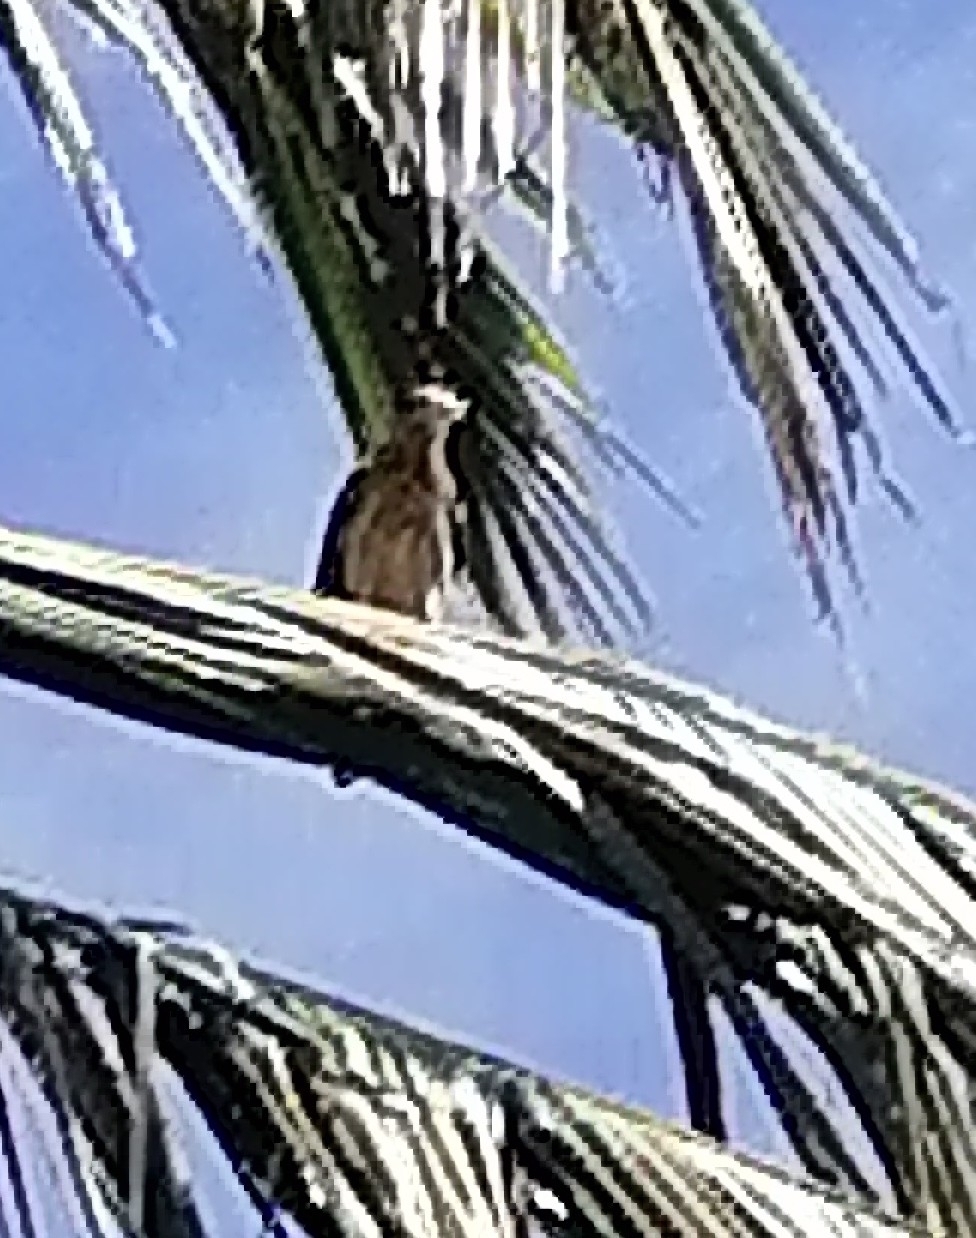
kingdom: Animalia
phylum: Chordata
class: Aves
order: Falconiformes
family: Falconidae
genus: Daptrius
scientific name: Daptrius
